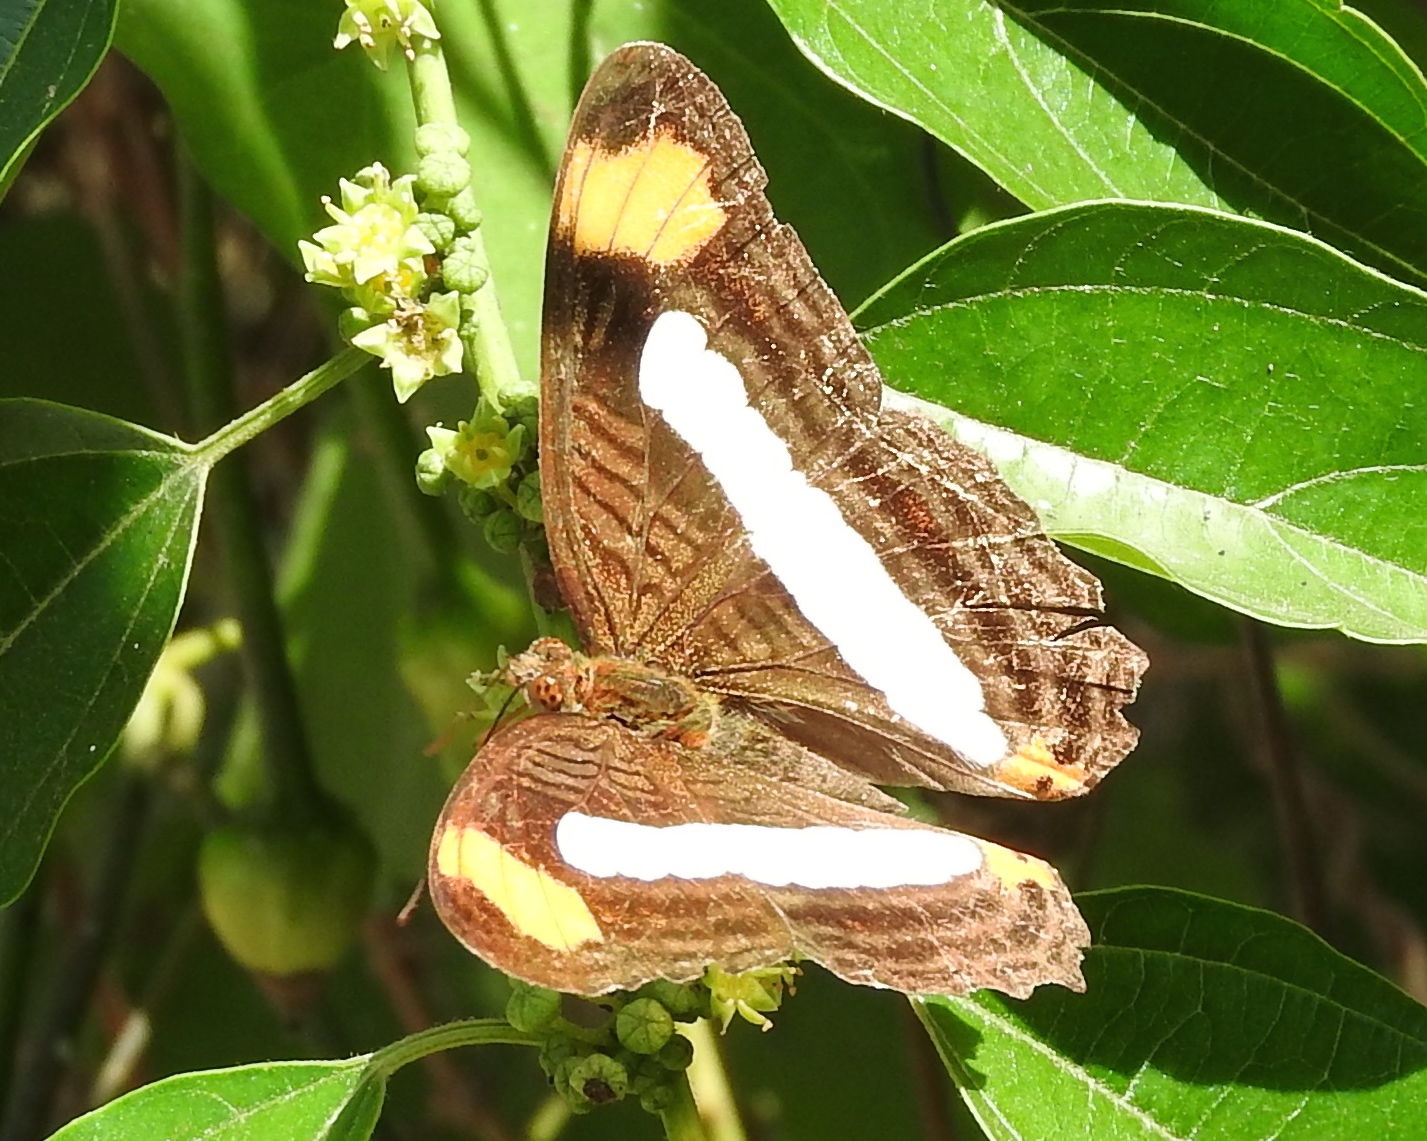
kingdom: Animalia
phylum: Arthropoda
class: Insecta
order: Lepidoptera
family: Nymphalidae
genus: Limenitis
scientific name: Limenitis iphiclus
